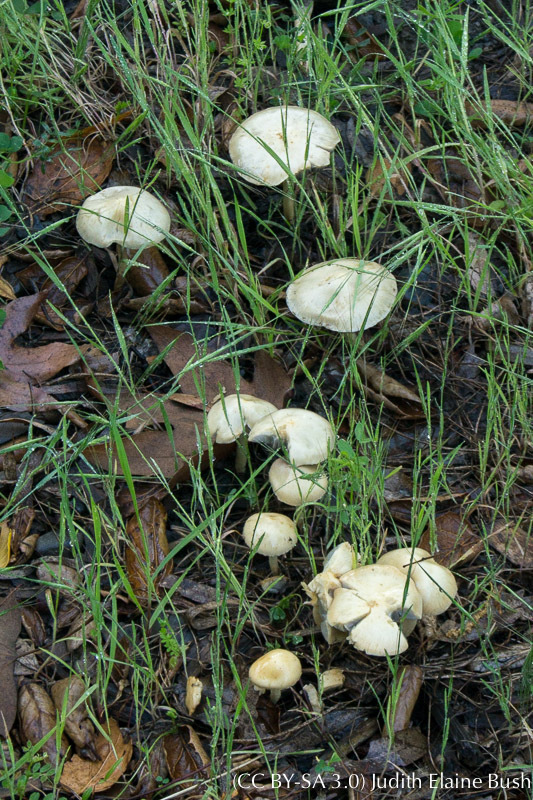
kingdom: Fungi
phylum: Basidiomycota
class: Agaricomycetes
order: Agaricales
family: Strophariaceae
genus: Leratiomyces
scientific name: Leratiomyces percevalii
